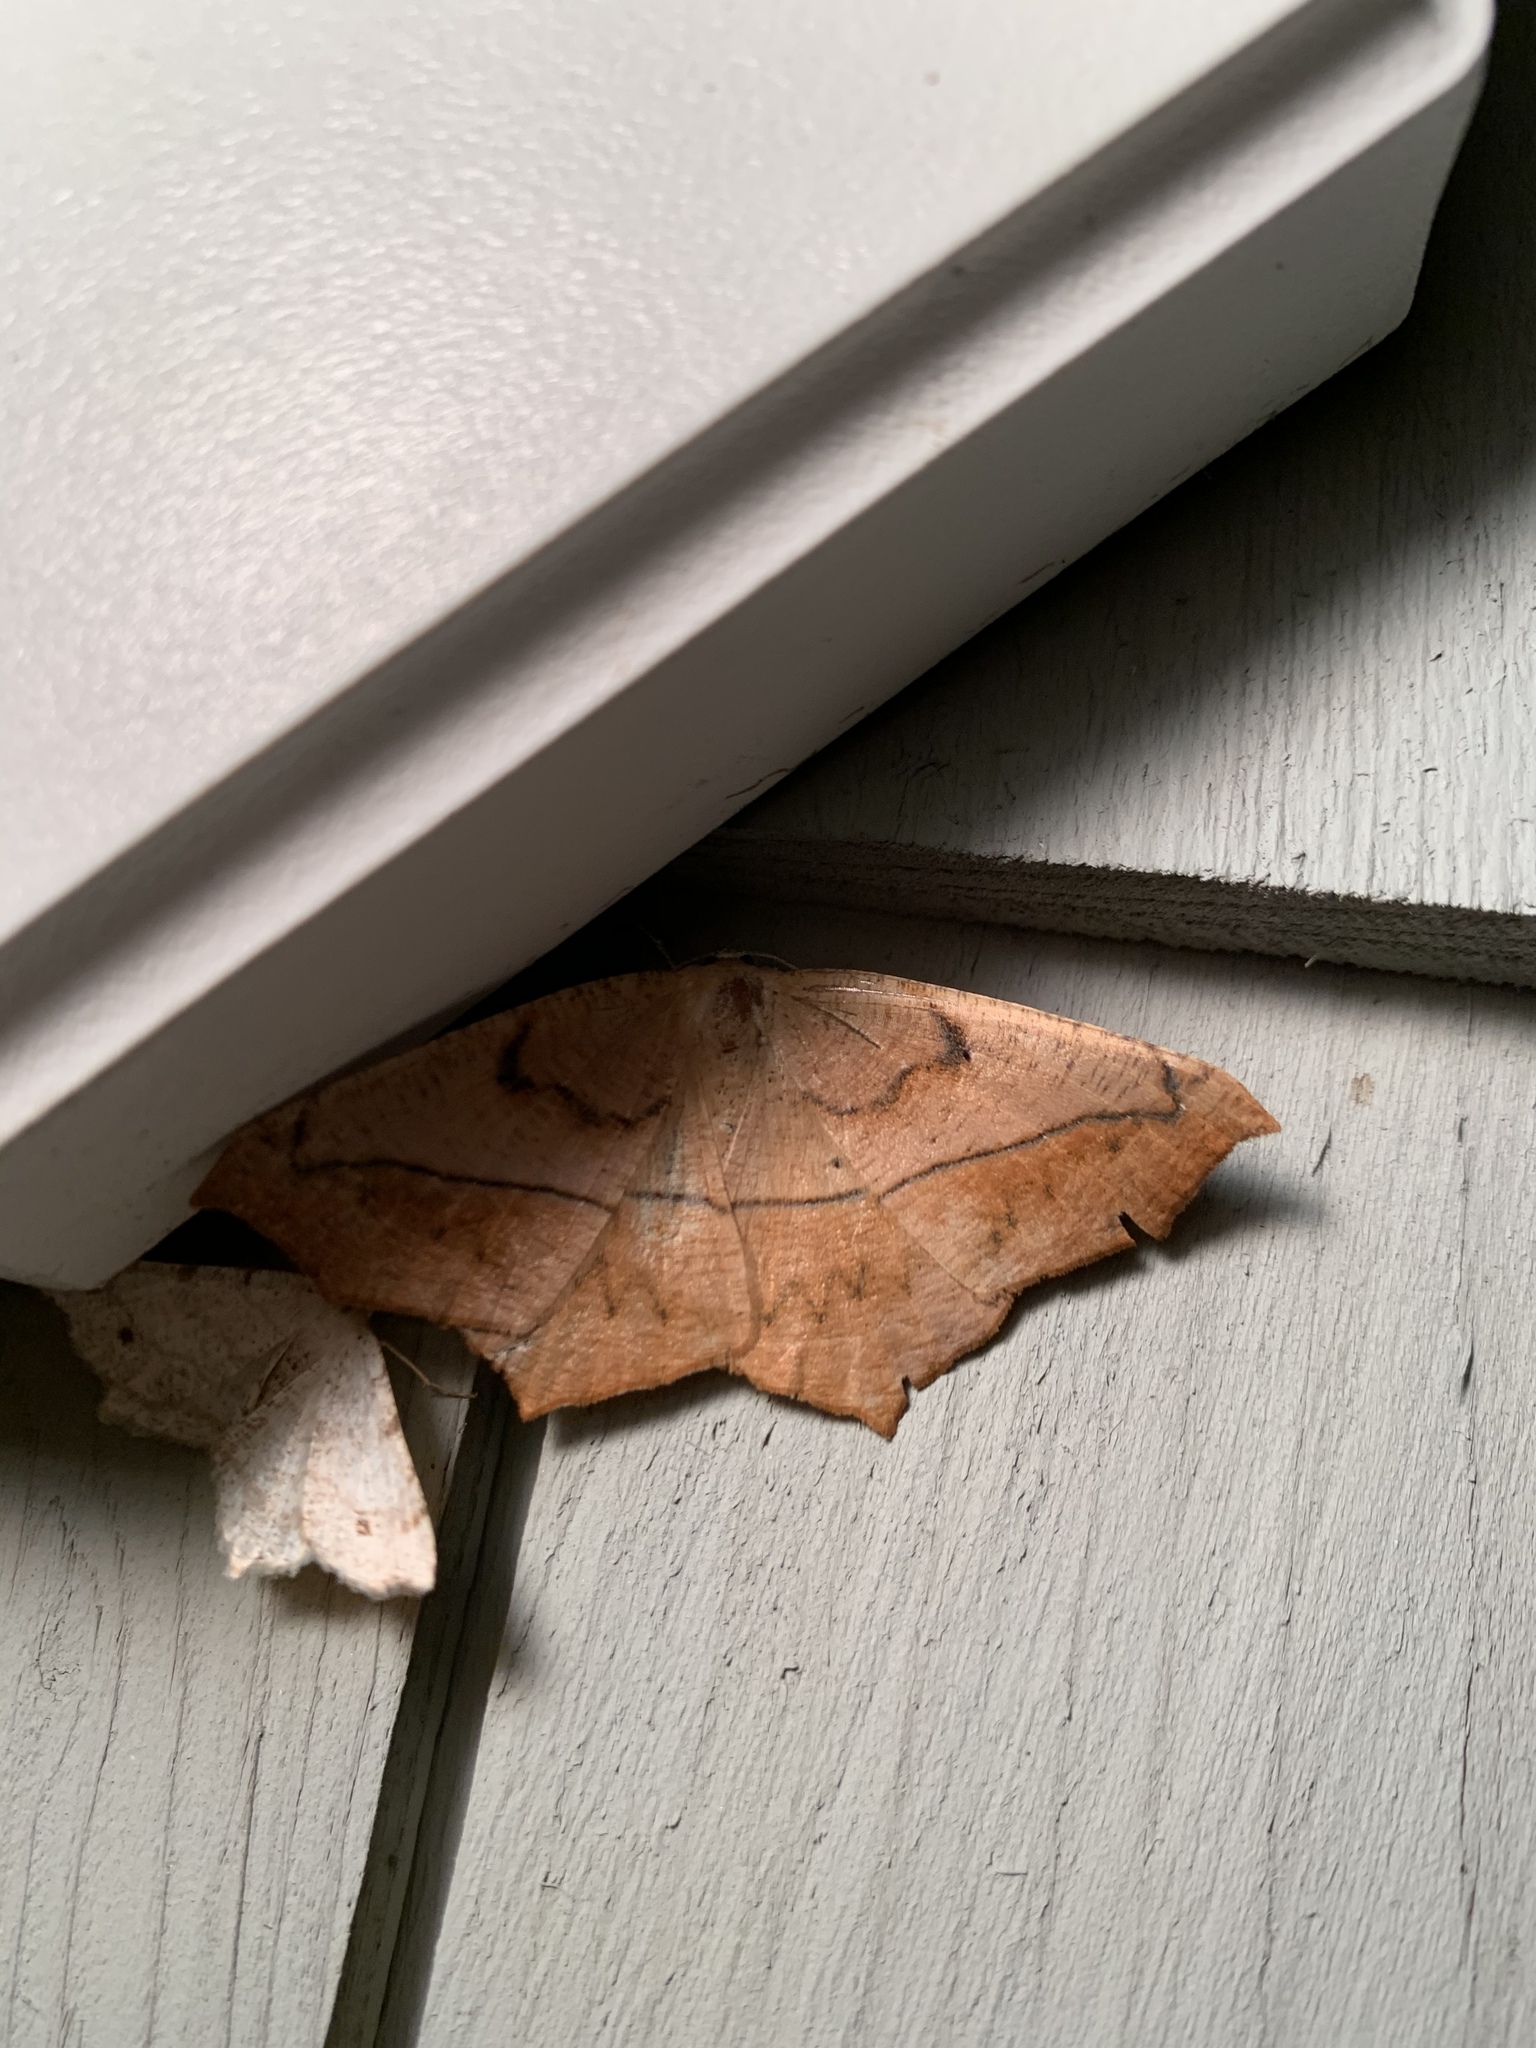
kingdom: Animalia
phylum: Arthropoda
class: Insecta
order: Lepidoptera
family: Geometridae
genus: Prochoerodes
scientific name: Prochoerodes lineola
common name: Large maple spanworm
